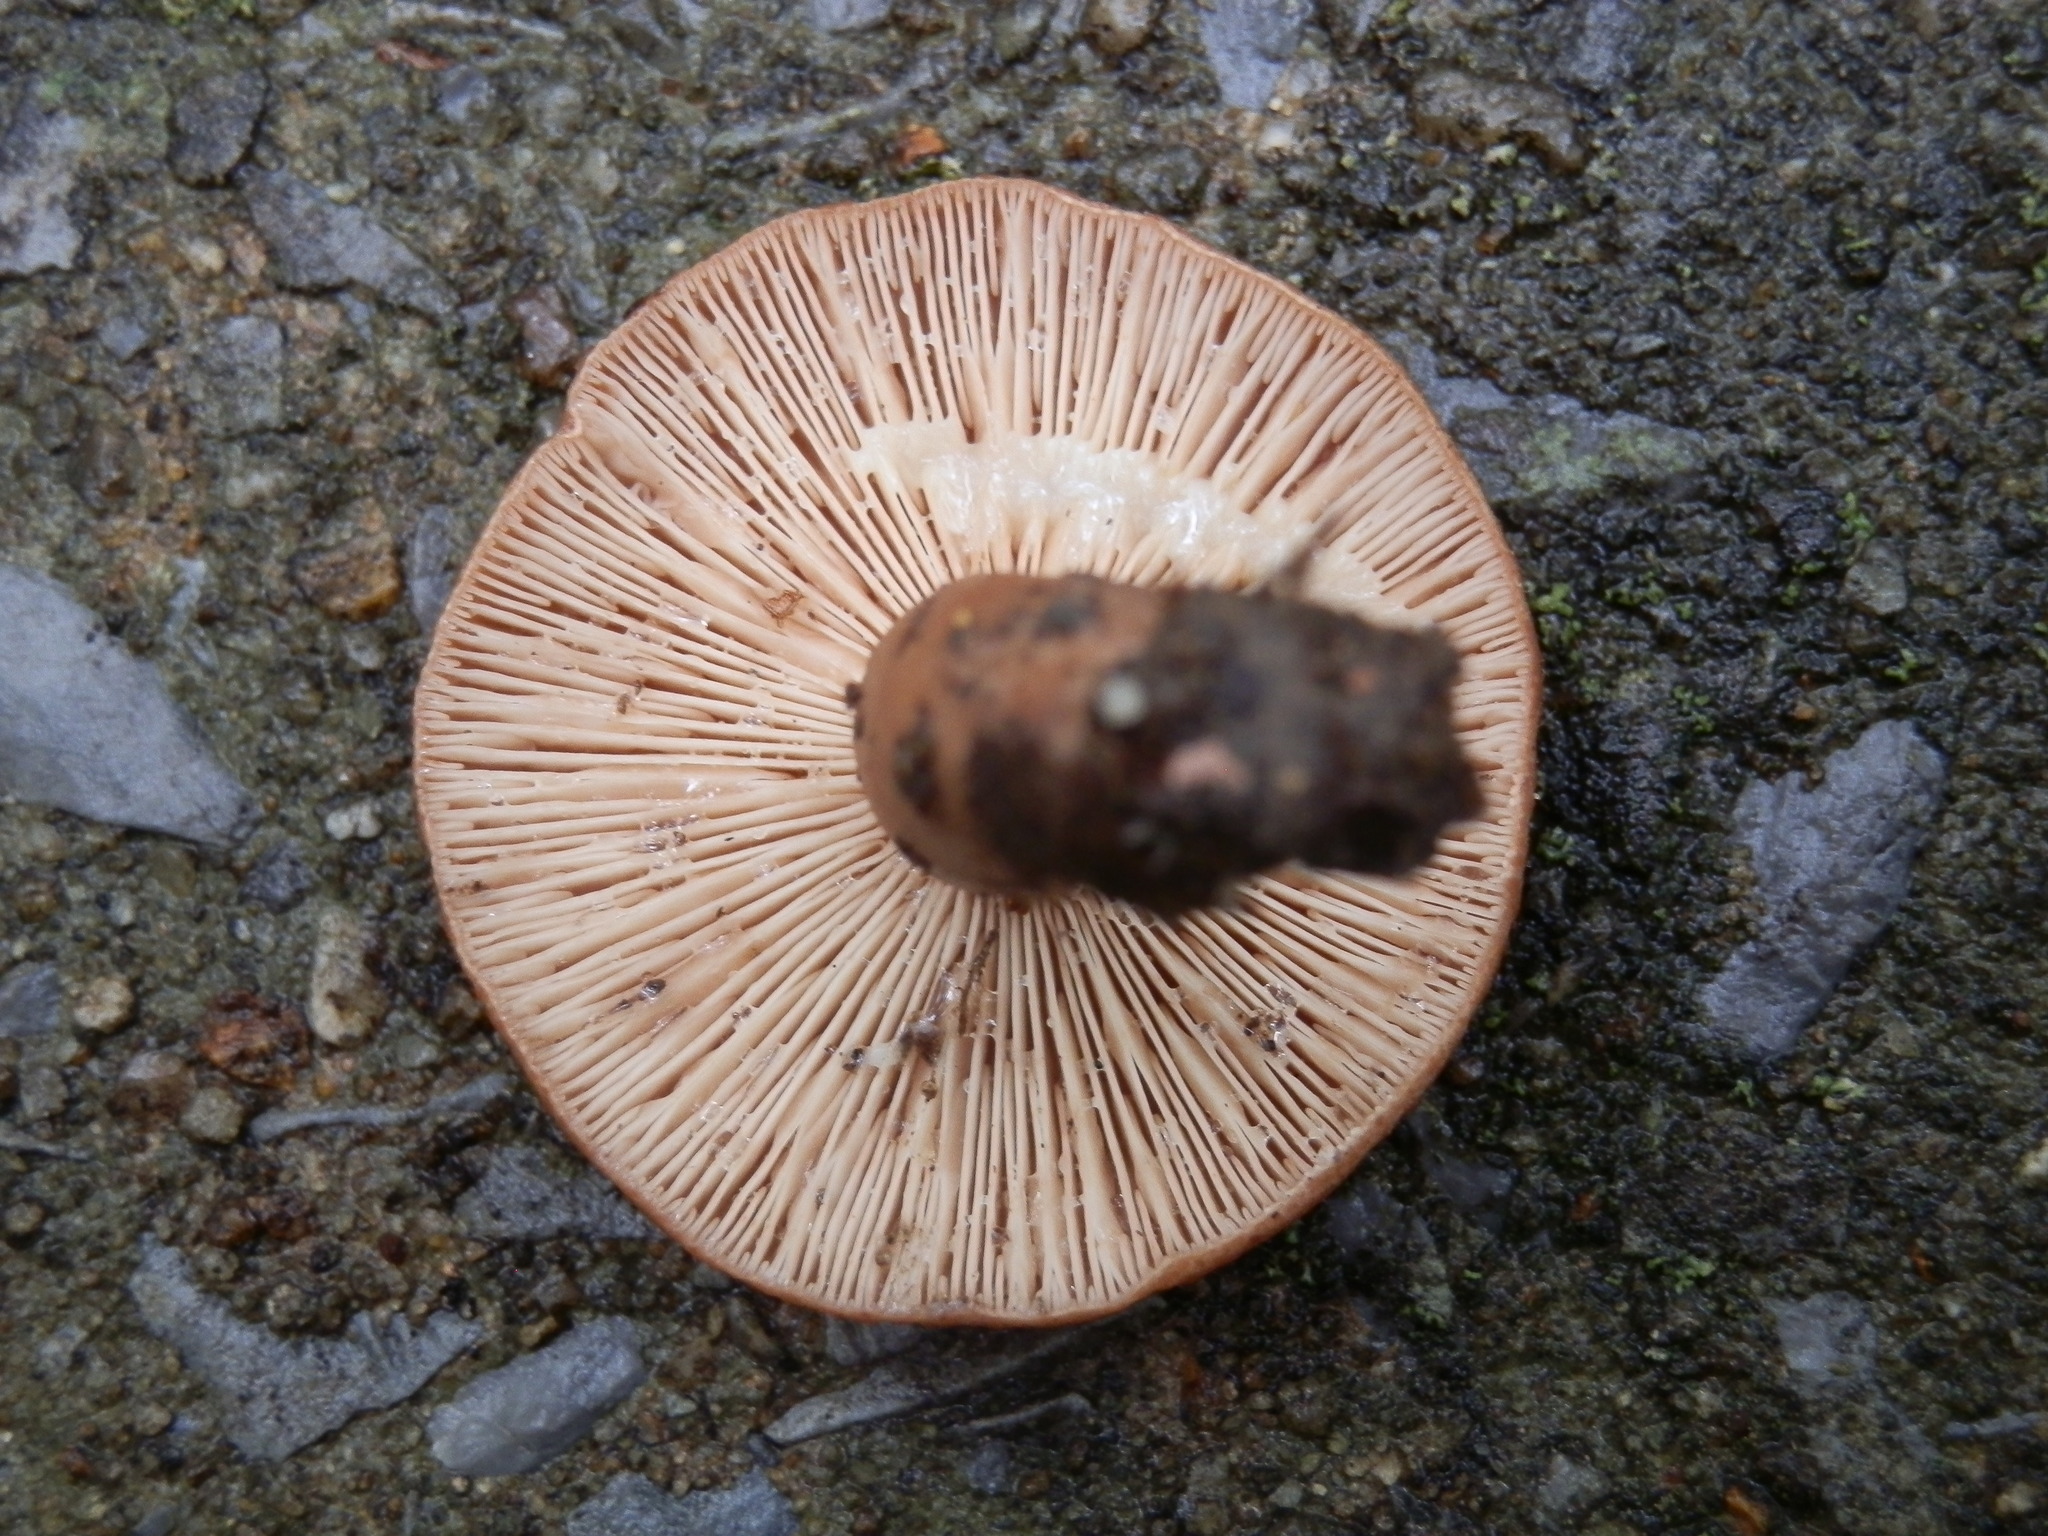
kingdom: Fungi
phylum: Basidiomycota
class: Agaricomycetes
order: Russulales
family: Russulaceae
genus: Lactarius
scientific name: Lactarius quietus
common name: Oak milk-cap
